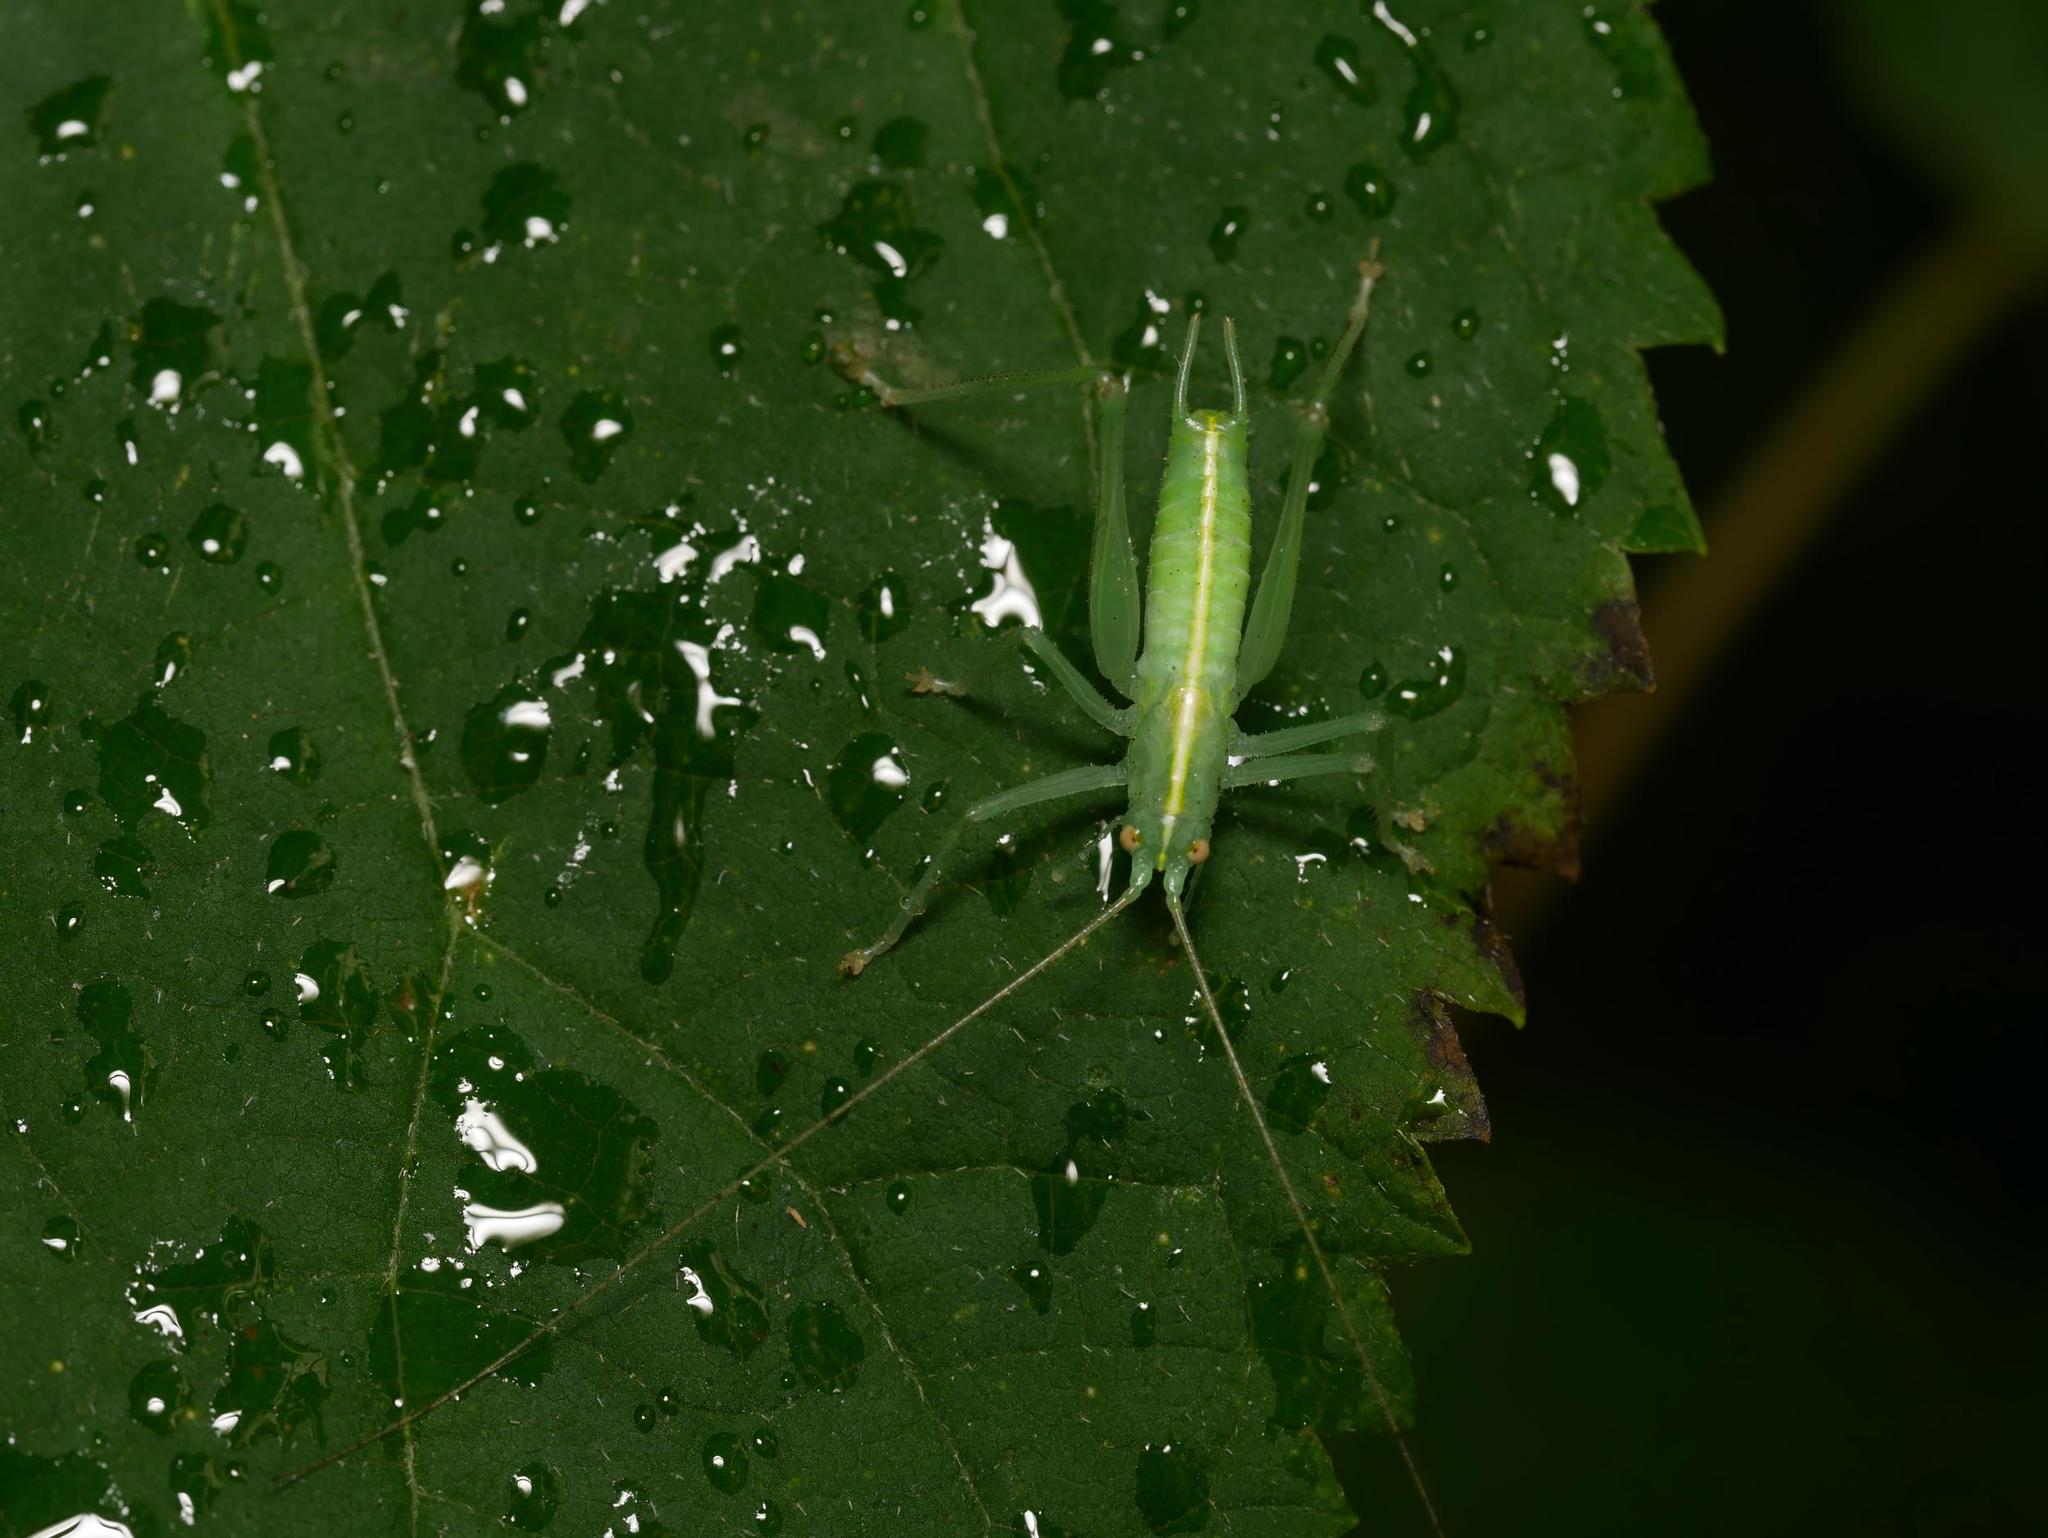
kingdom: Animalia
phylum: Arthropoda
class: Insecta
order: Orthoptera
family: Tettigoniidae
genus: Meconema
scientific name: Meconema meridionale
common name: Southern oak bush-cricket
